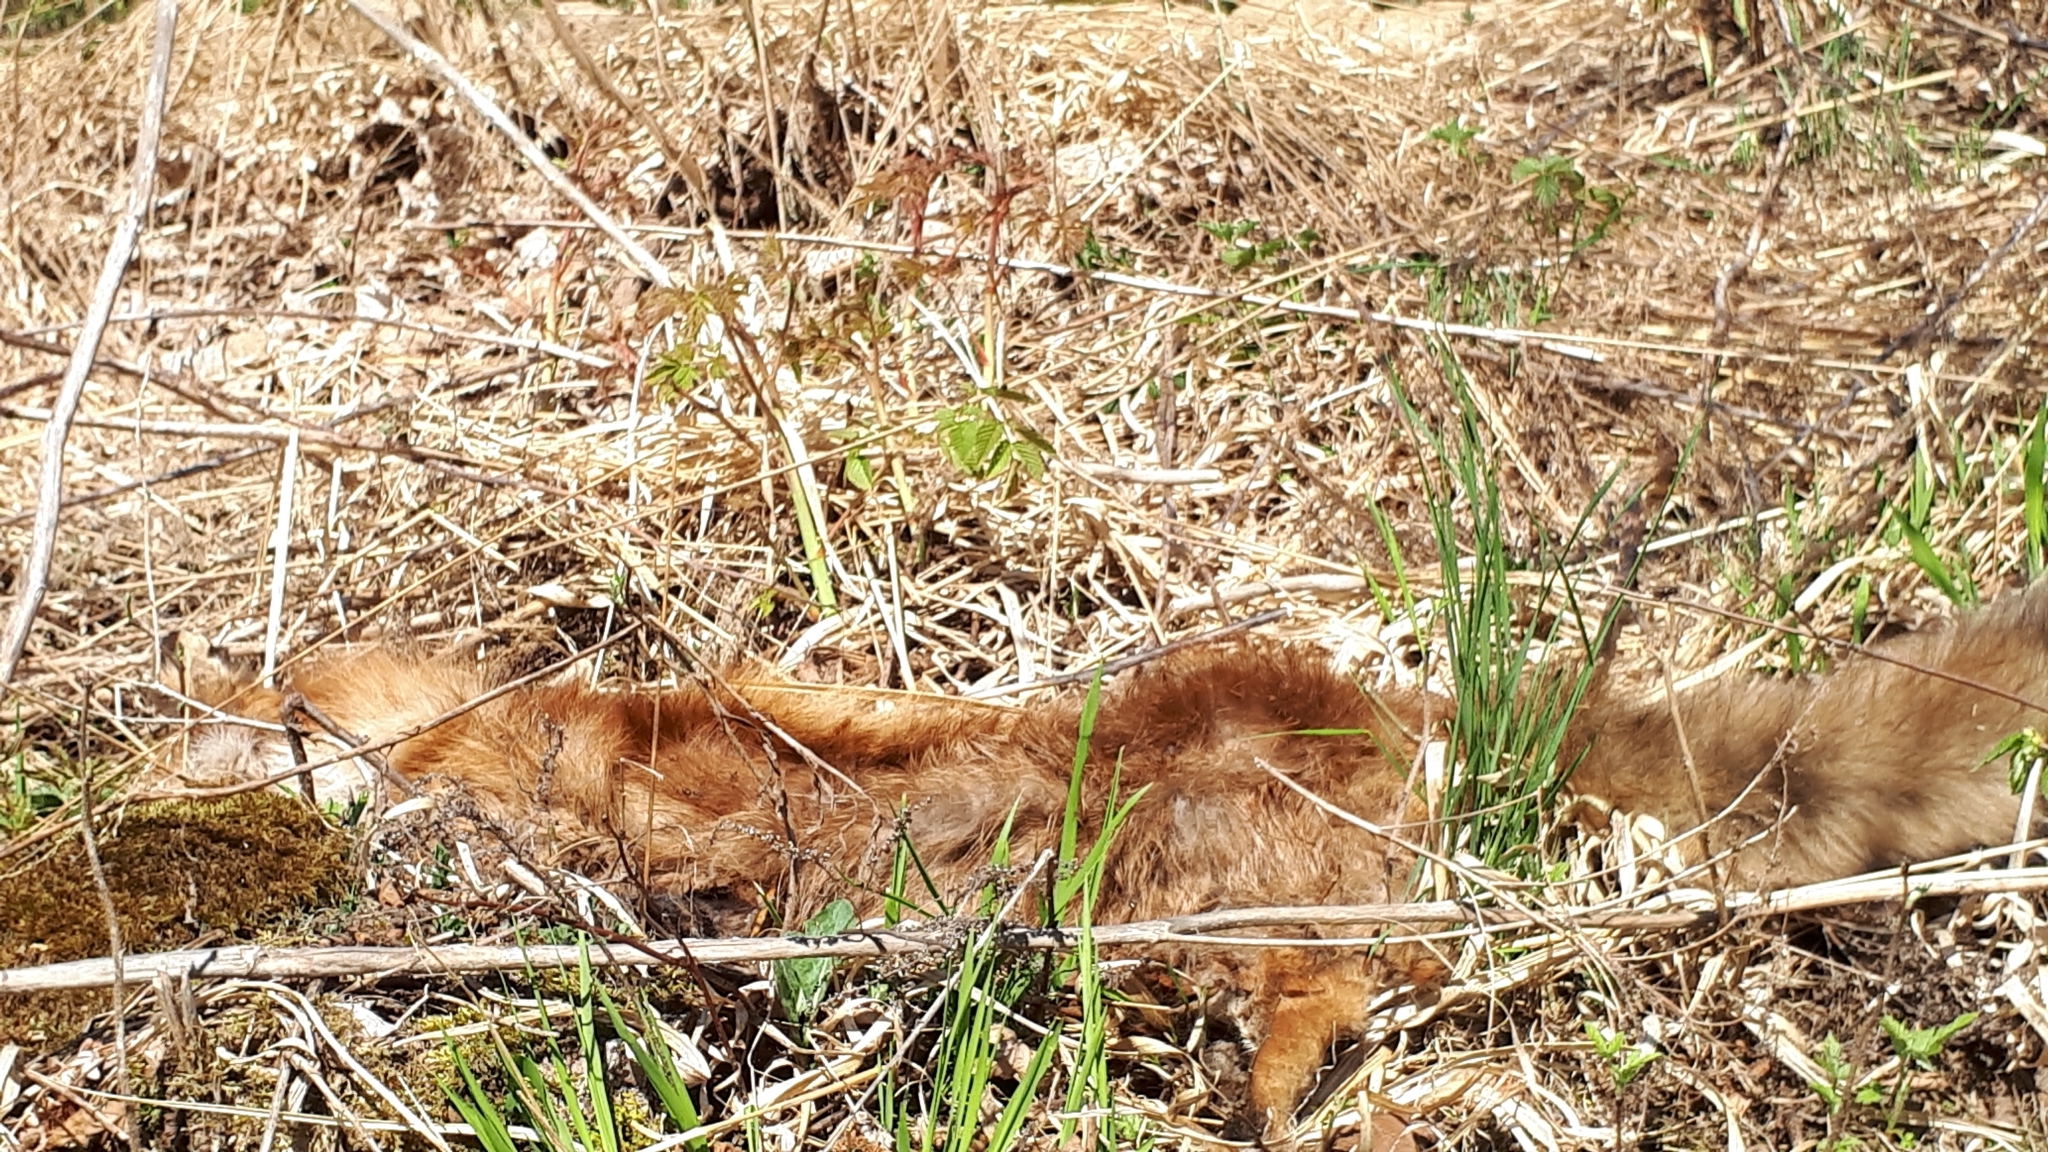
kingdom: Animalia
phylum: Chordata
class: Mammalia
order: Carnivora
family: Canidae
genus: Vulpes
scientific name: Vulpes vulpes
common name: Red fox
